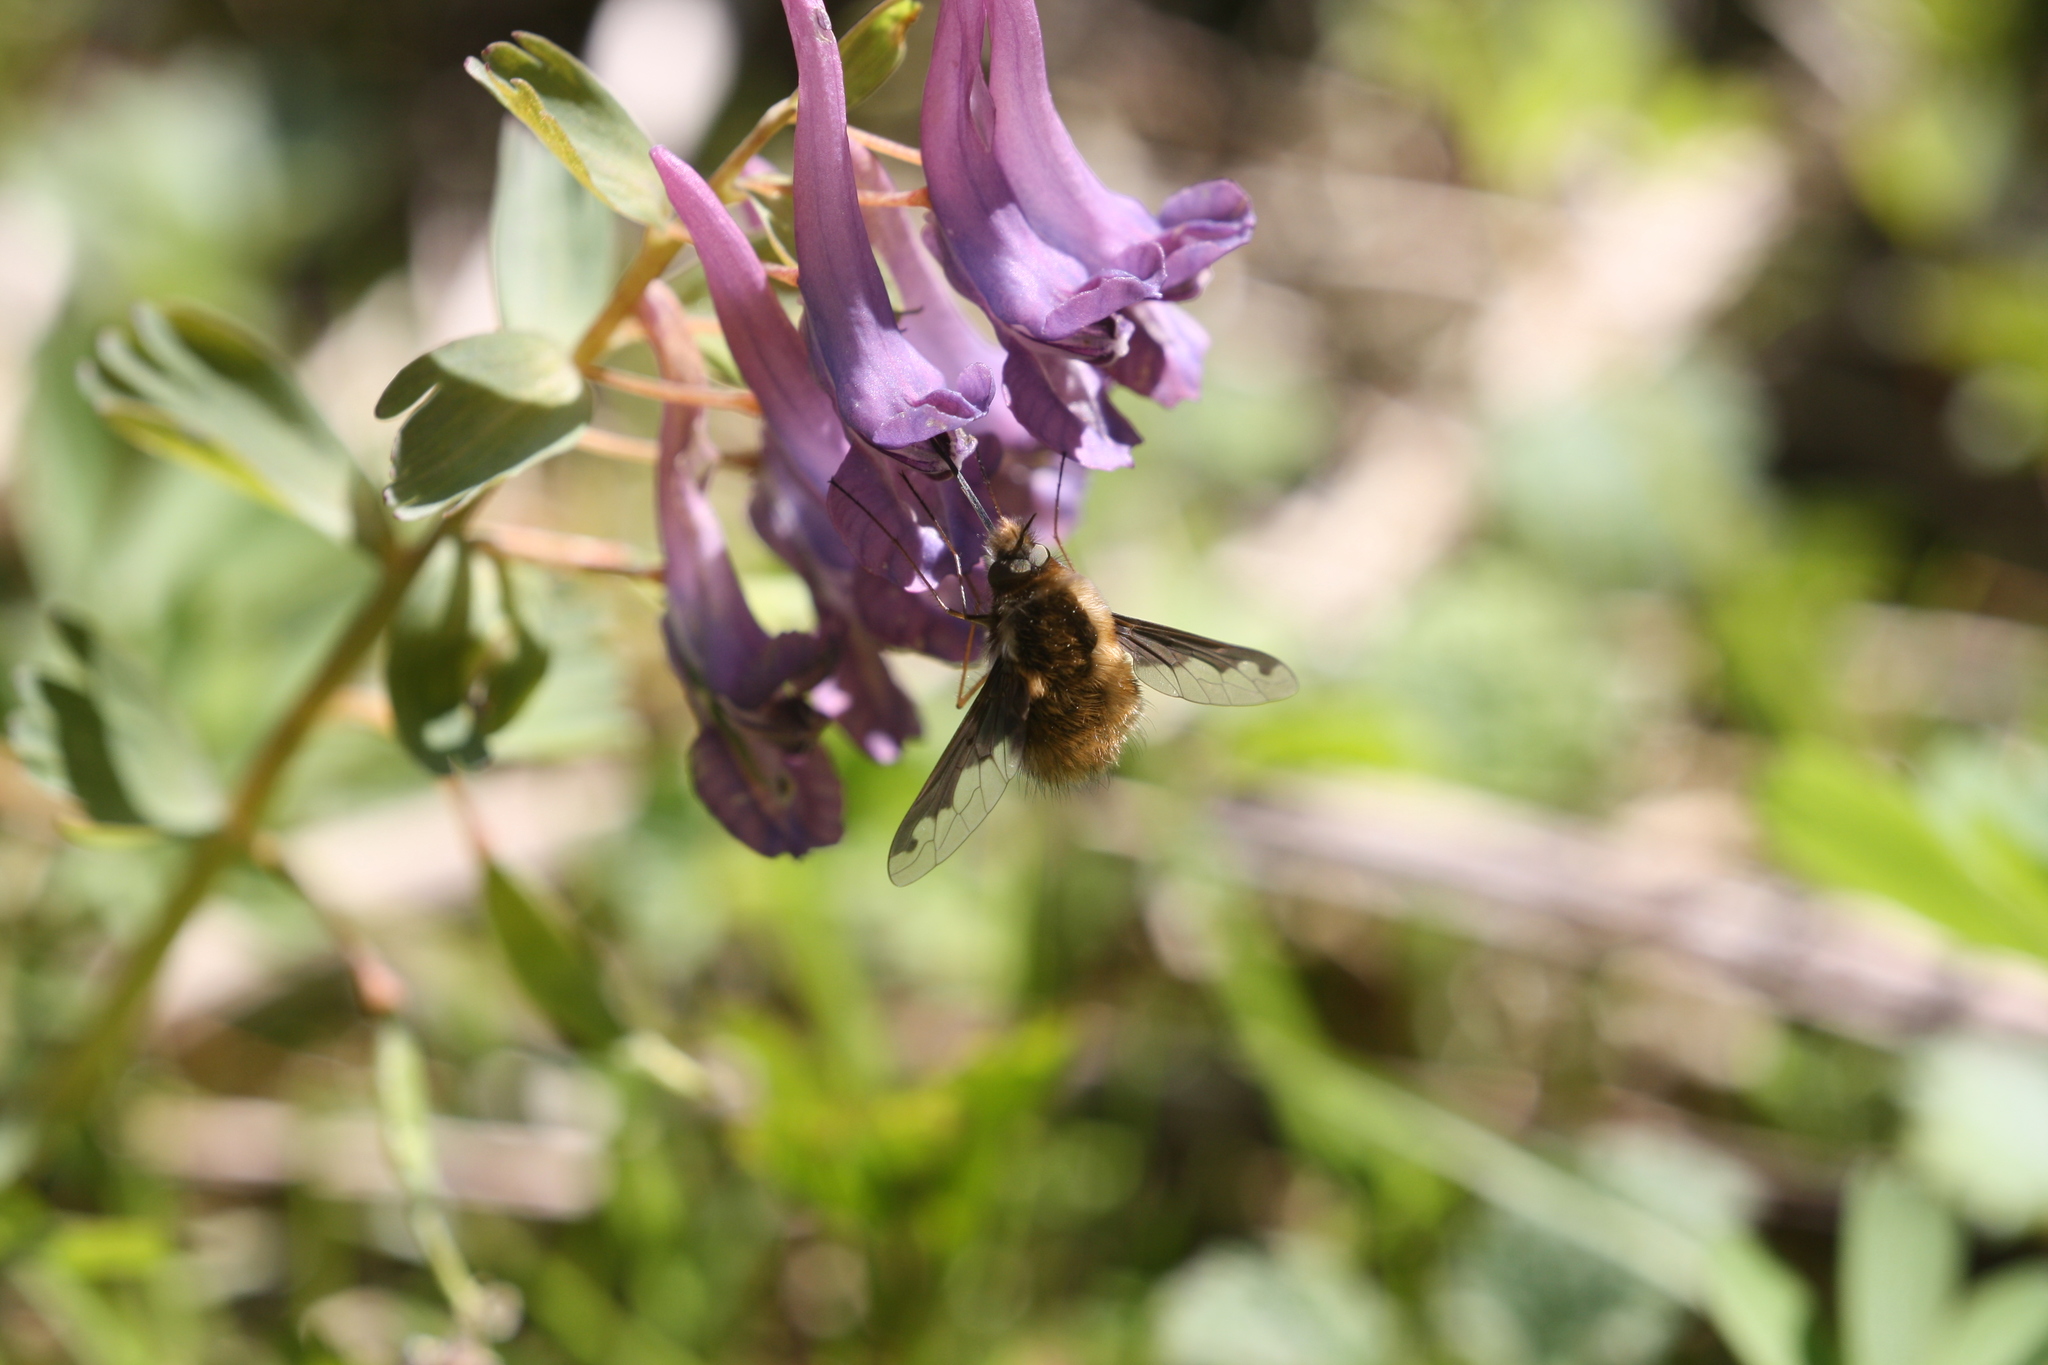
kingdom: Animalia
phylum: Arthropoda
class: Insecta
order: Diptera
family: Bombyliidae
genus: Bombylius
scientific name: Bombylius major
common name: Bee fly
